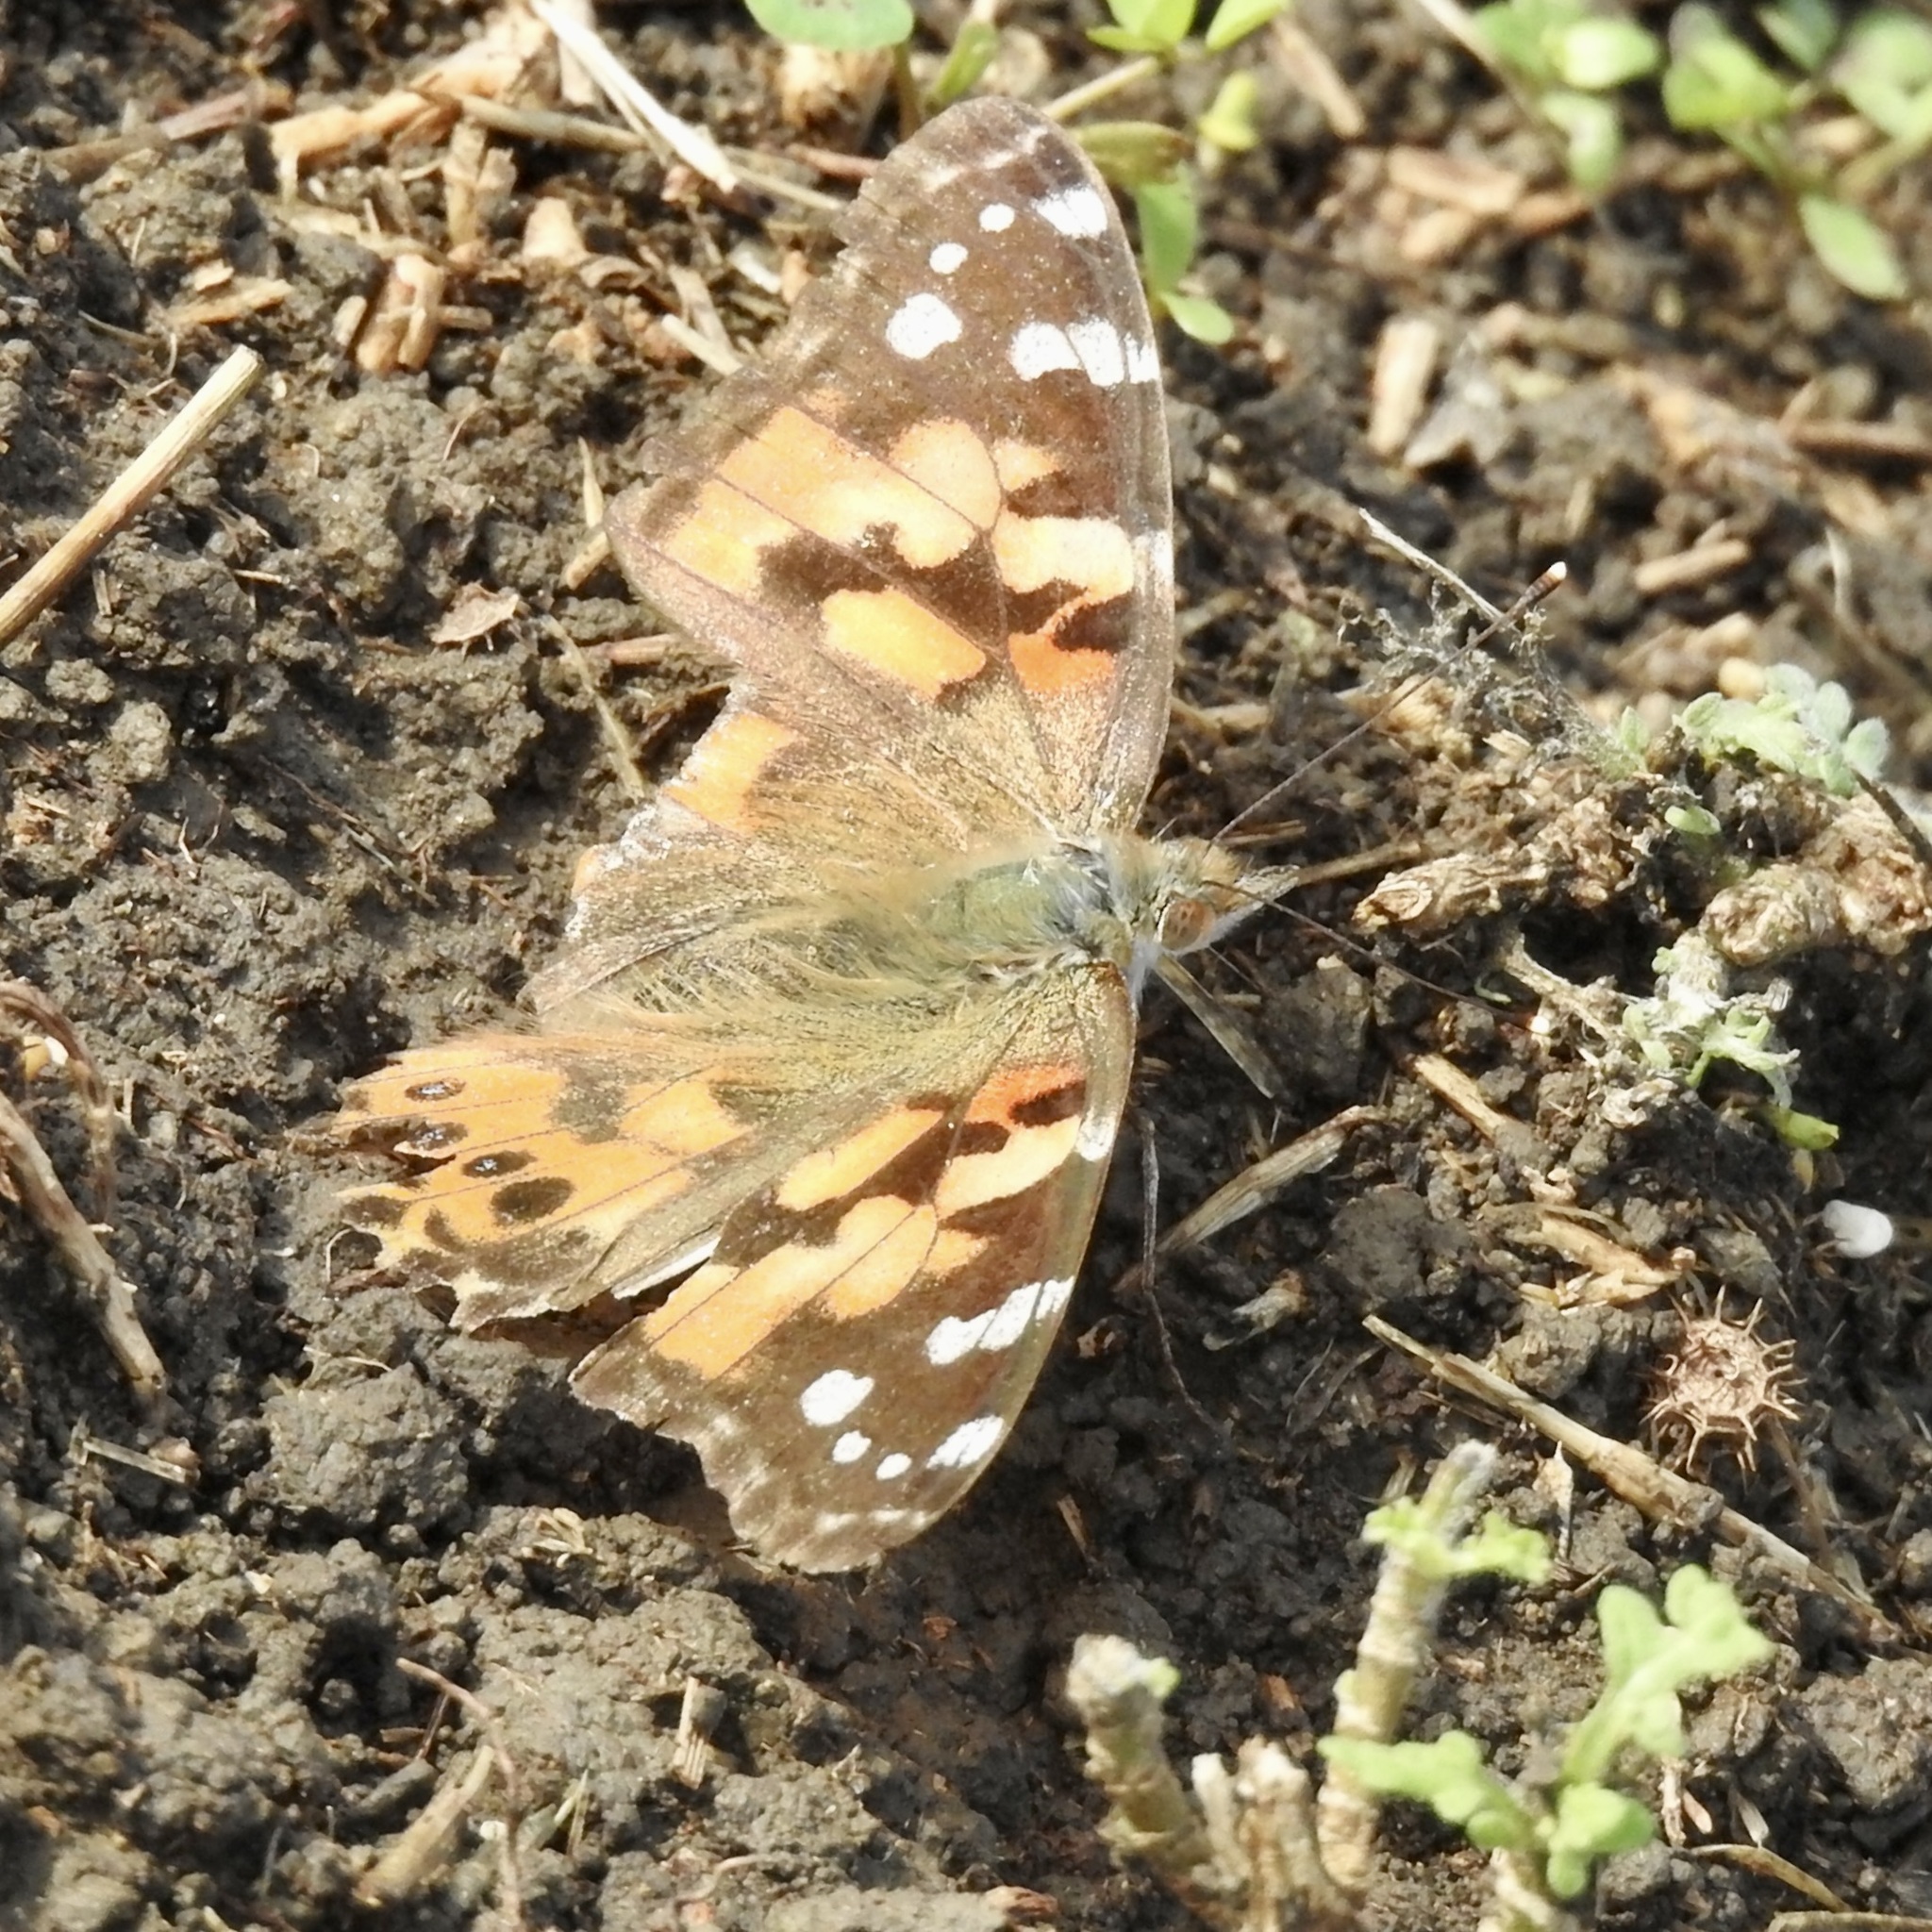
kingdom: Animalia
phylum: Arthropoda
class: Insecta
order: Lepidoptera
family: Nymphalidae
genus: Vanessa
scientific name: Vanessa cardui
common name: Painted lady
